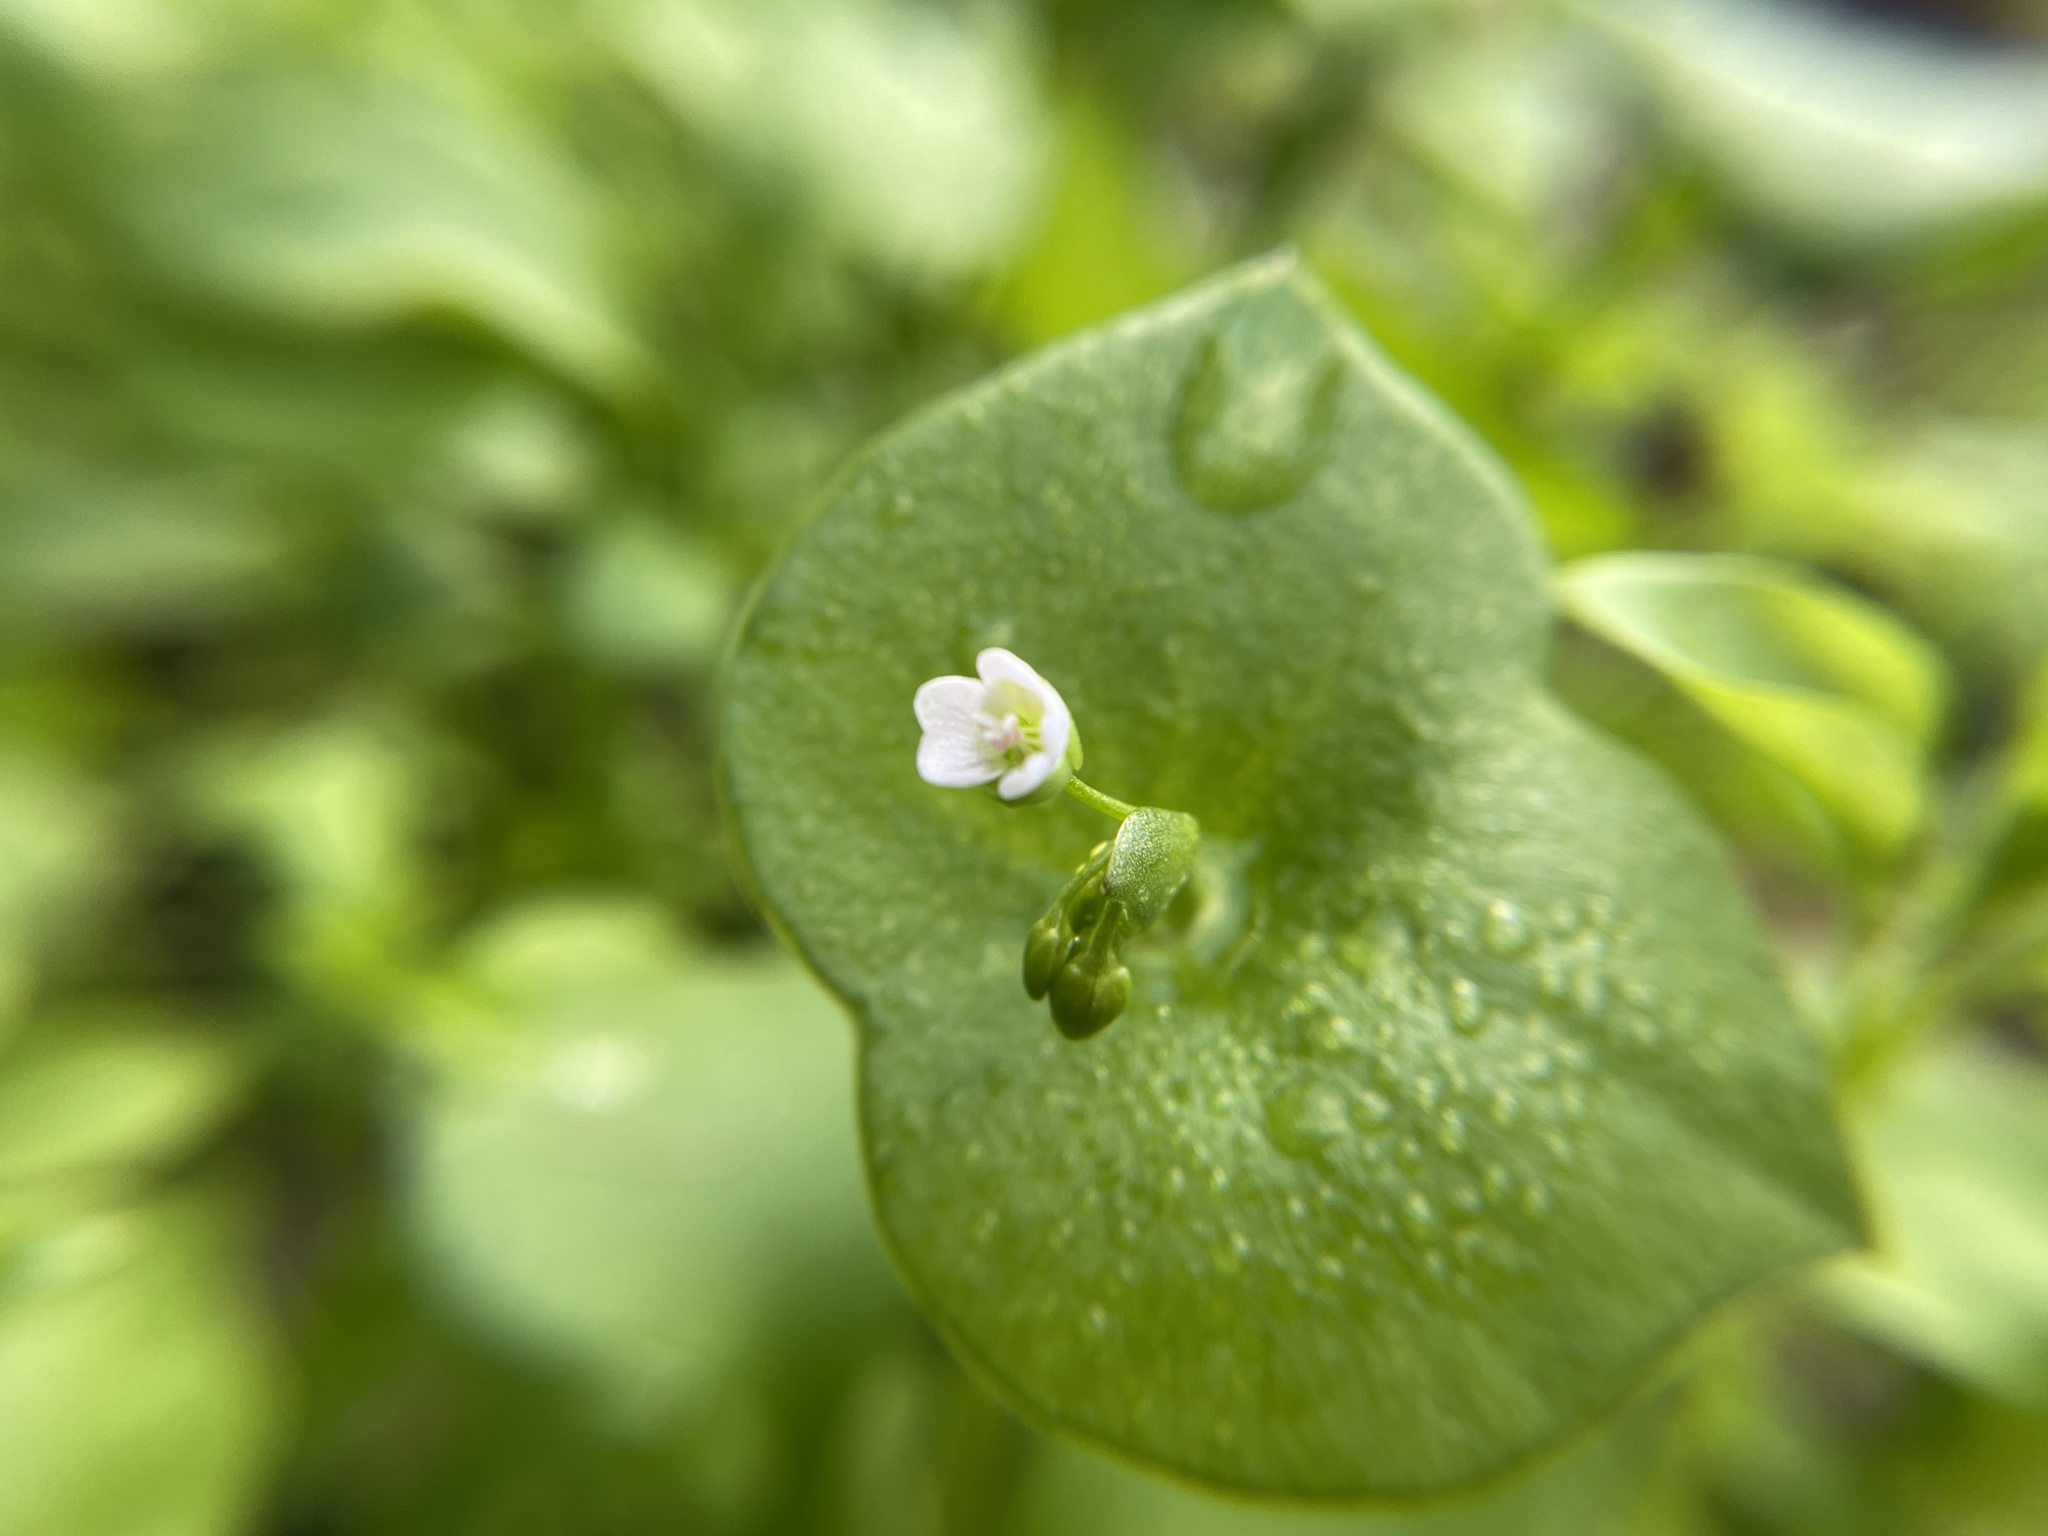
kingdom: Plantae
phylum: Tracheophyta
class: Magnoliopsida
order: Caryophyllales
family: Montiaceae
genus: Claytonia
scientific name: Claytonia perfoliata
